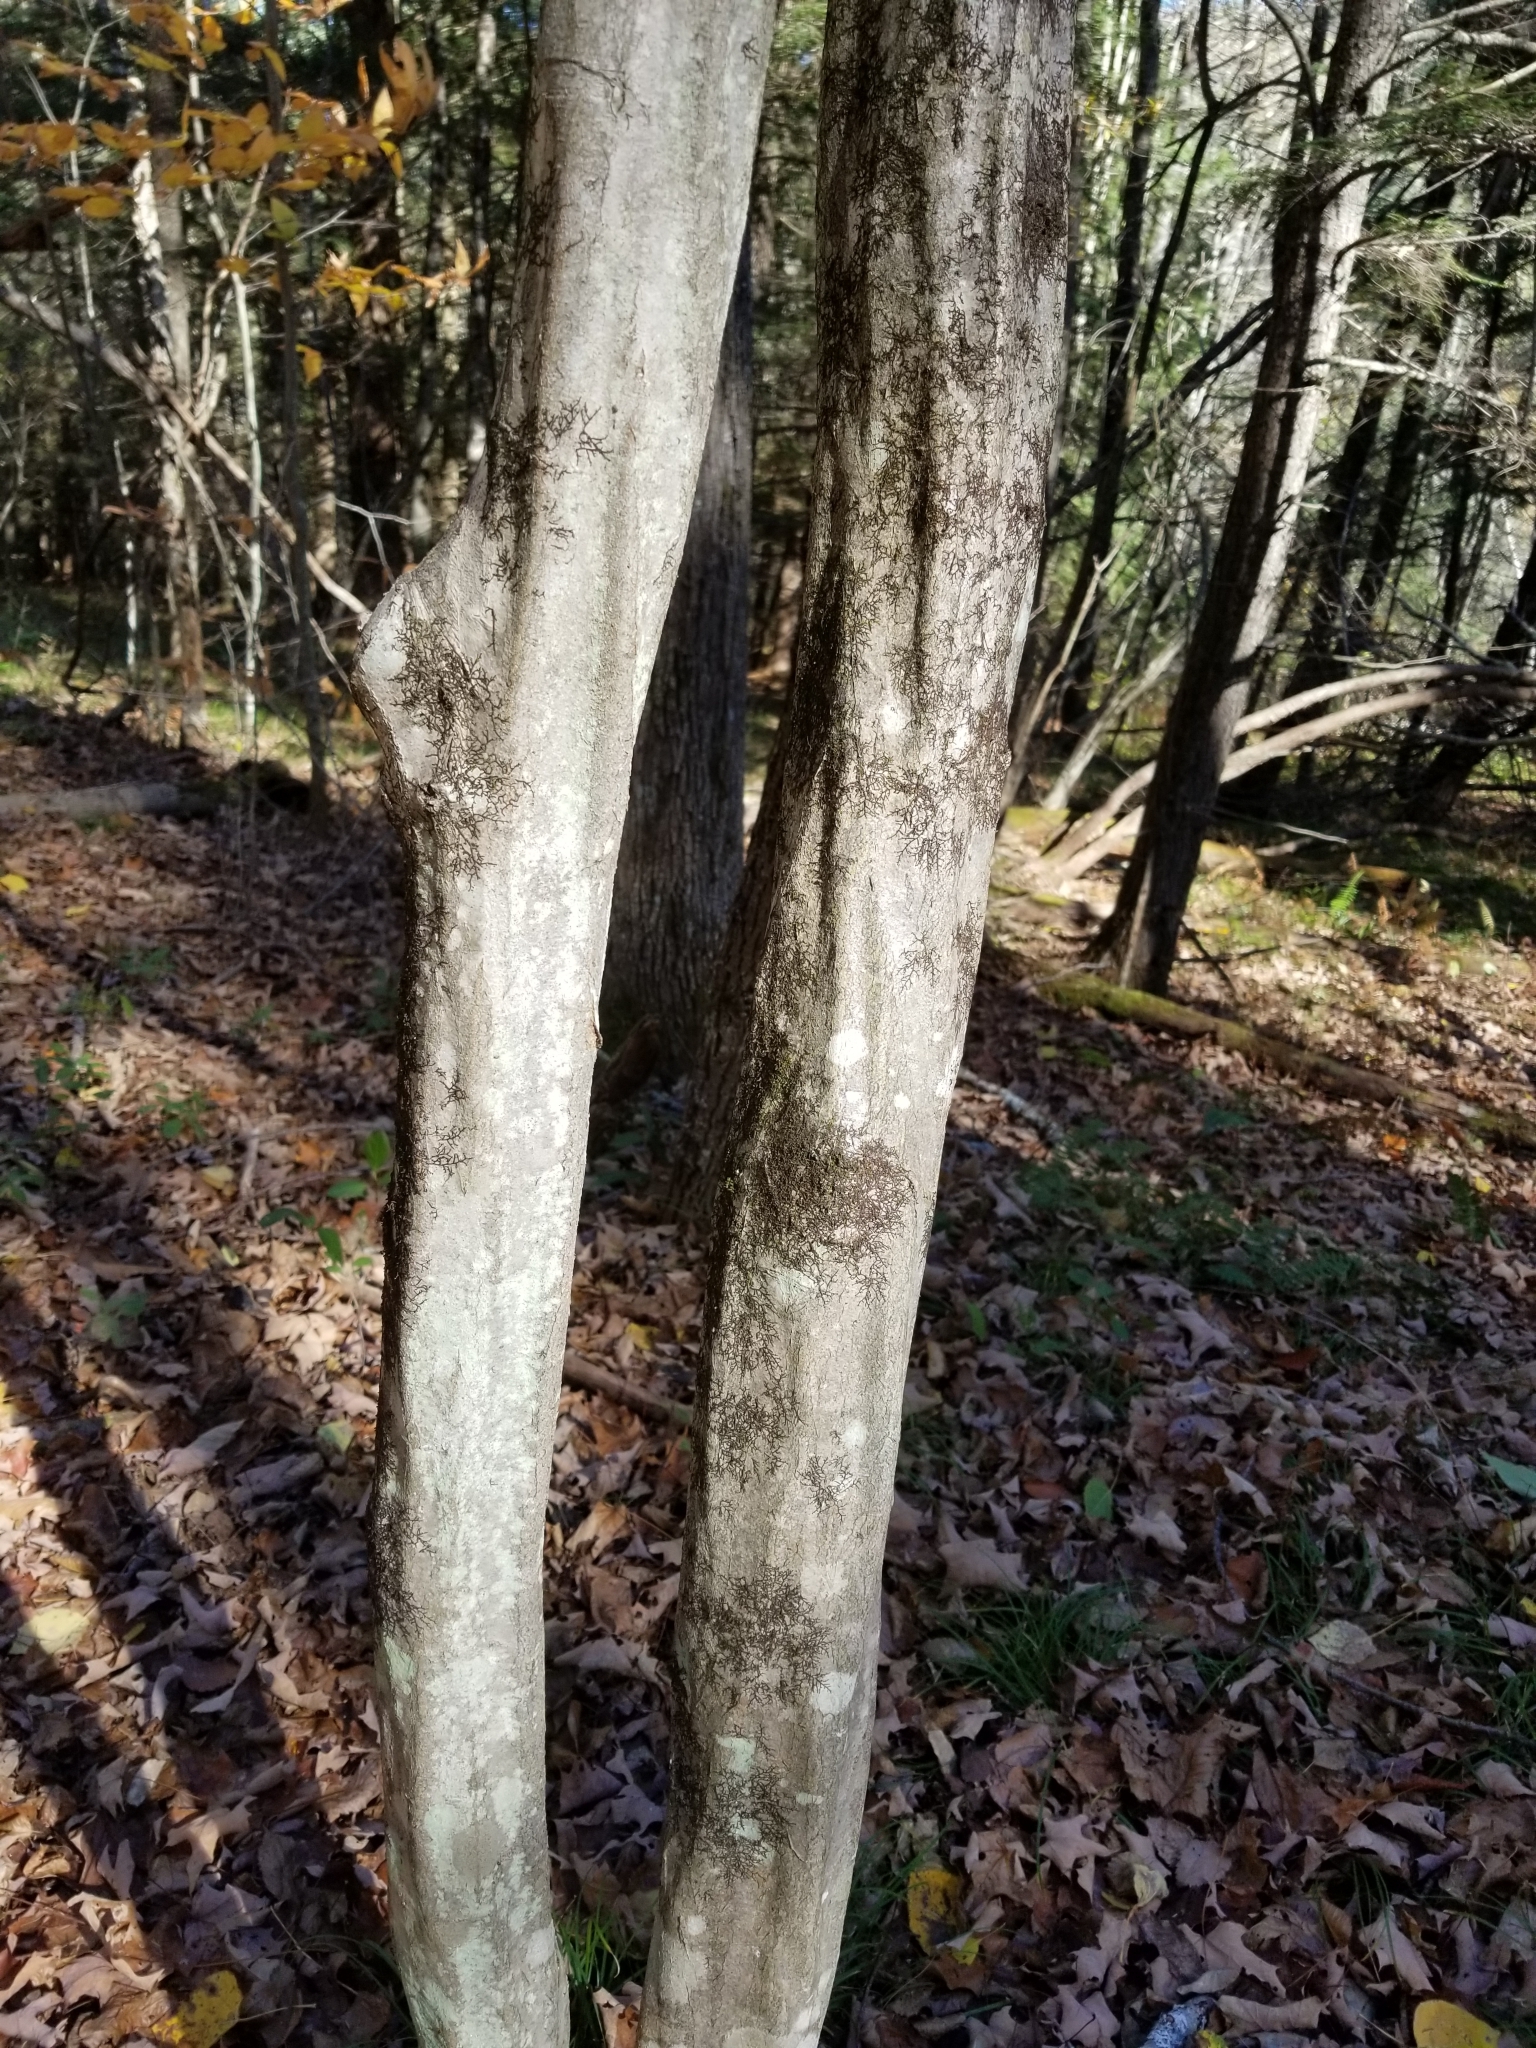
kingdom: Plantae
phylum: Tracheophyta
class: Magnoliopsida
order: Fagales
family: Betulaceae
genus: Carpinus
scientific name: Carpinus caroliniana
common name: American hornbeam
